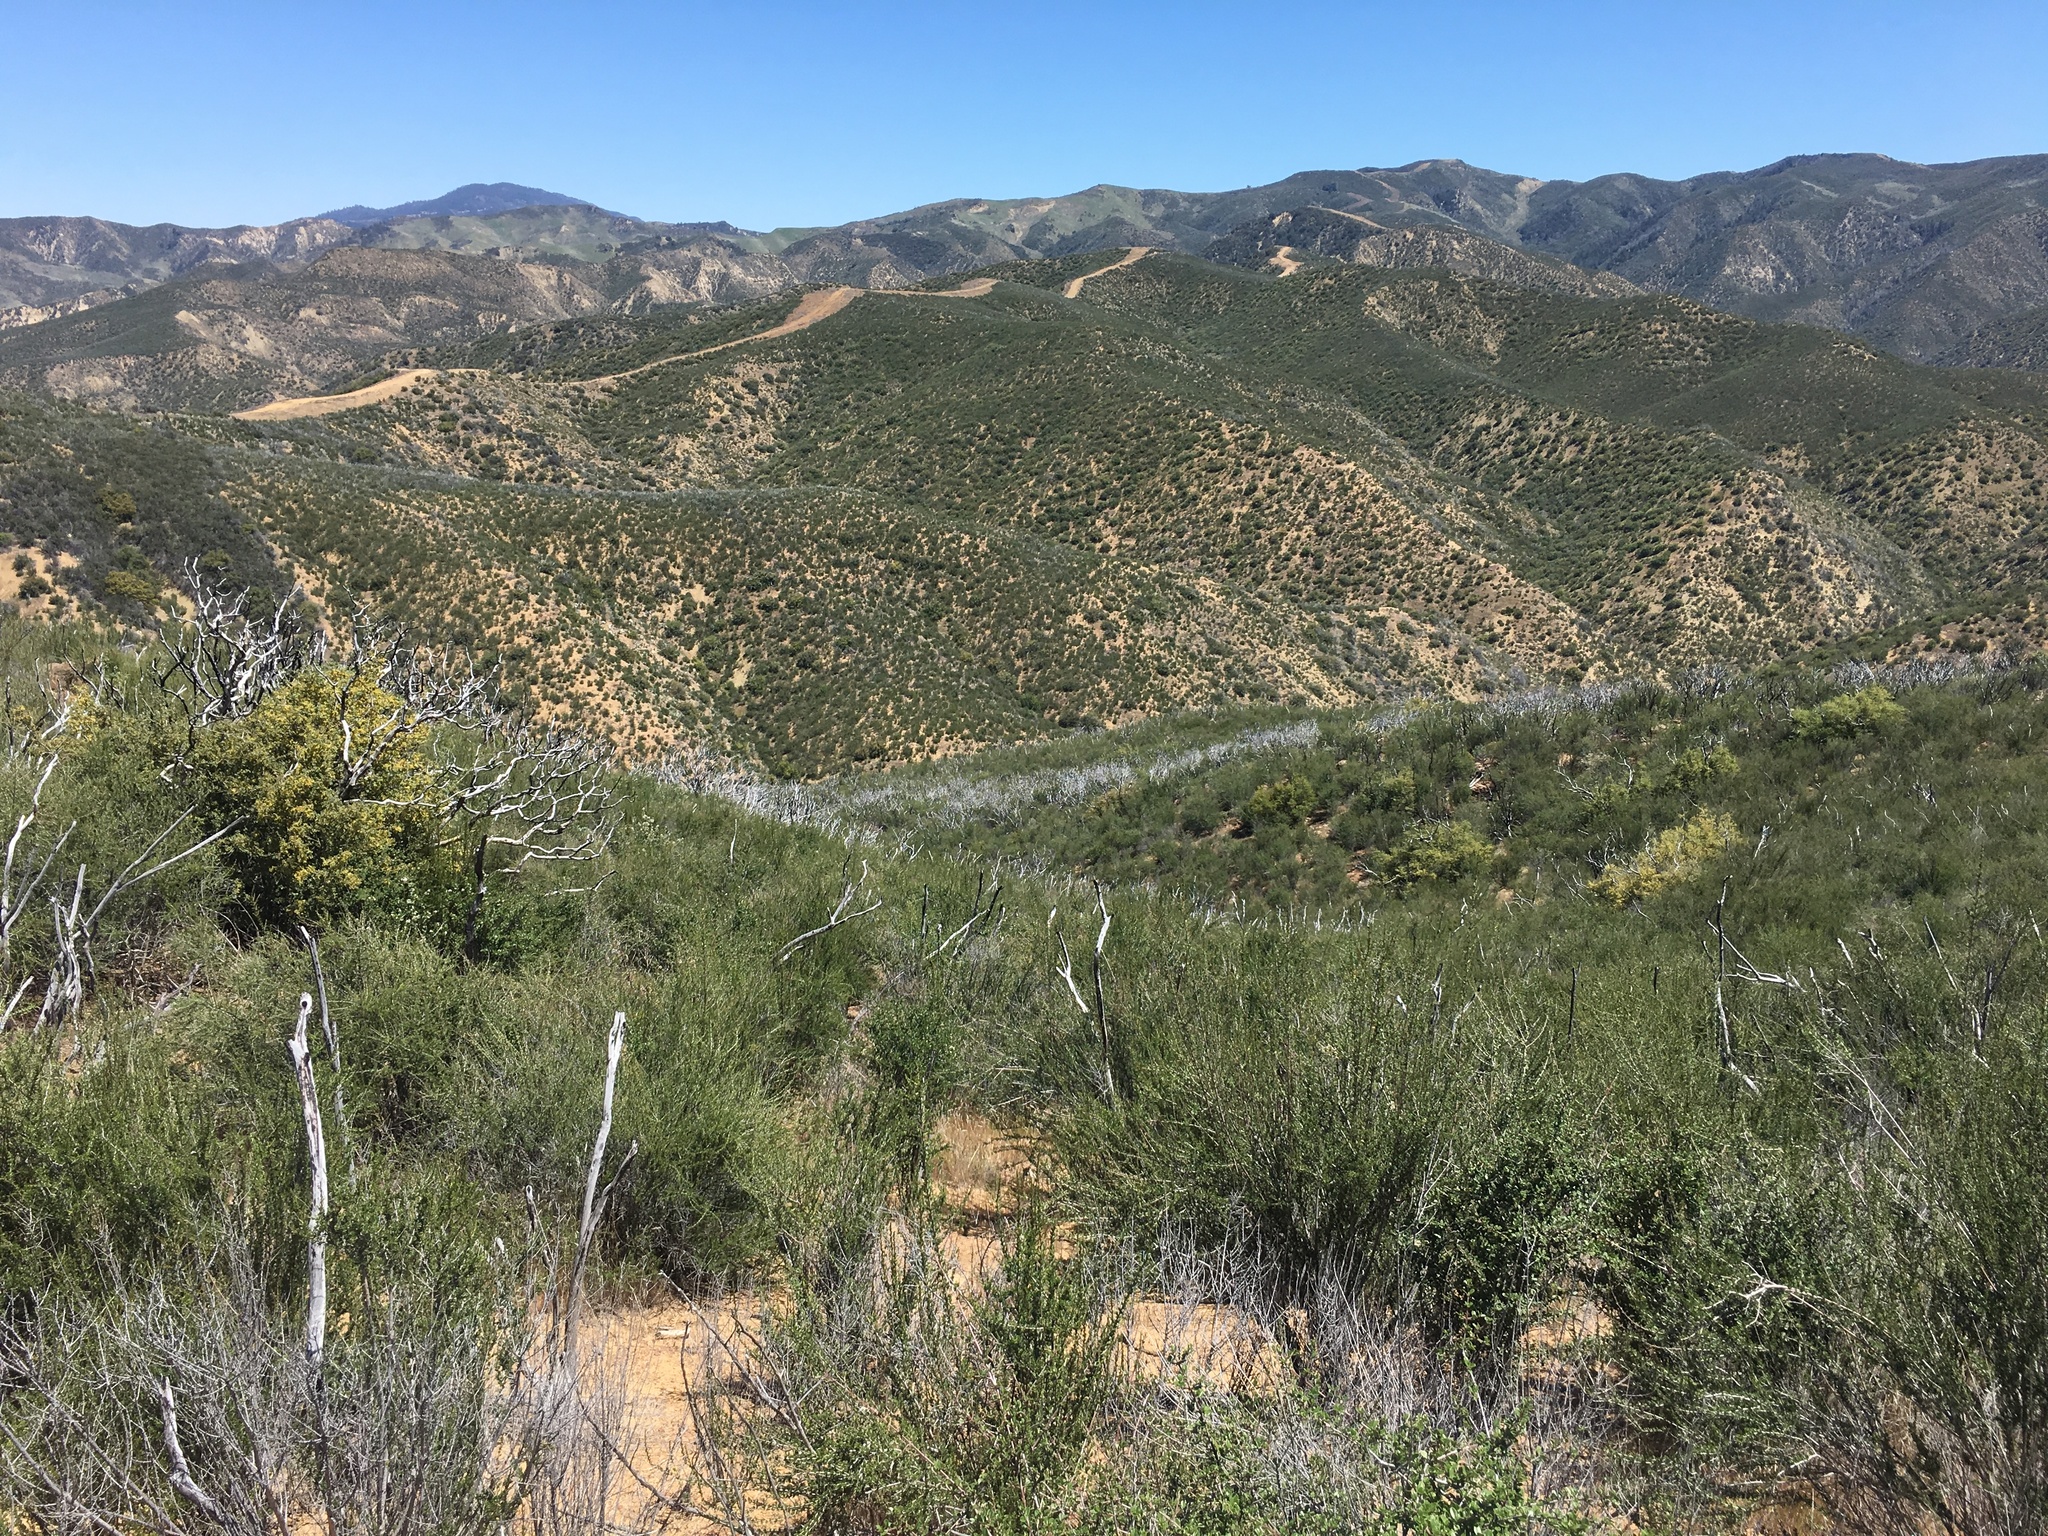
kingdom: Plantae
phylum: Tracheophyta
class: Magnoliopsida
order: Rosales
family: Rosaceae
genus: Adenostoma
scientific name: Adenostoma fasciculatum
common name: Chamise
